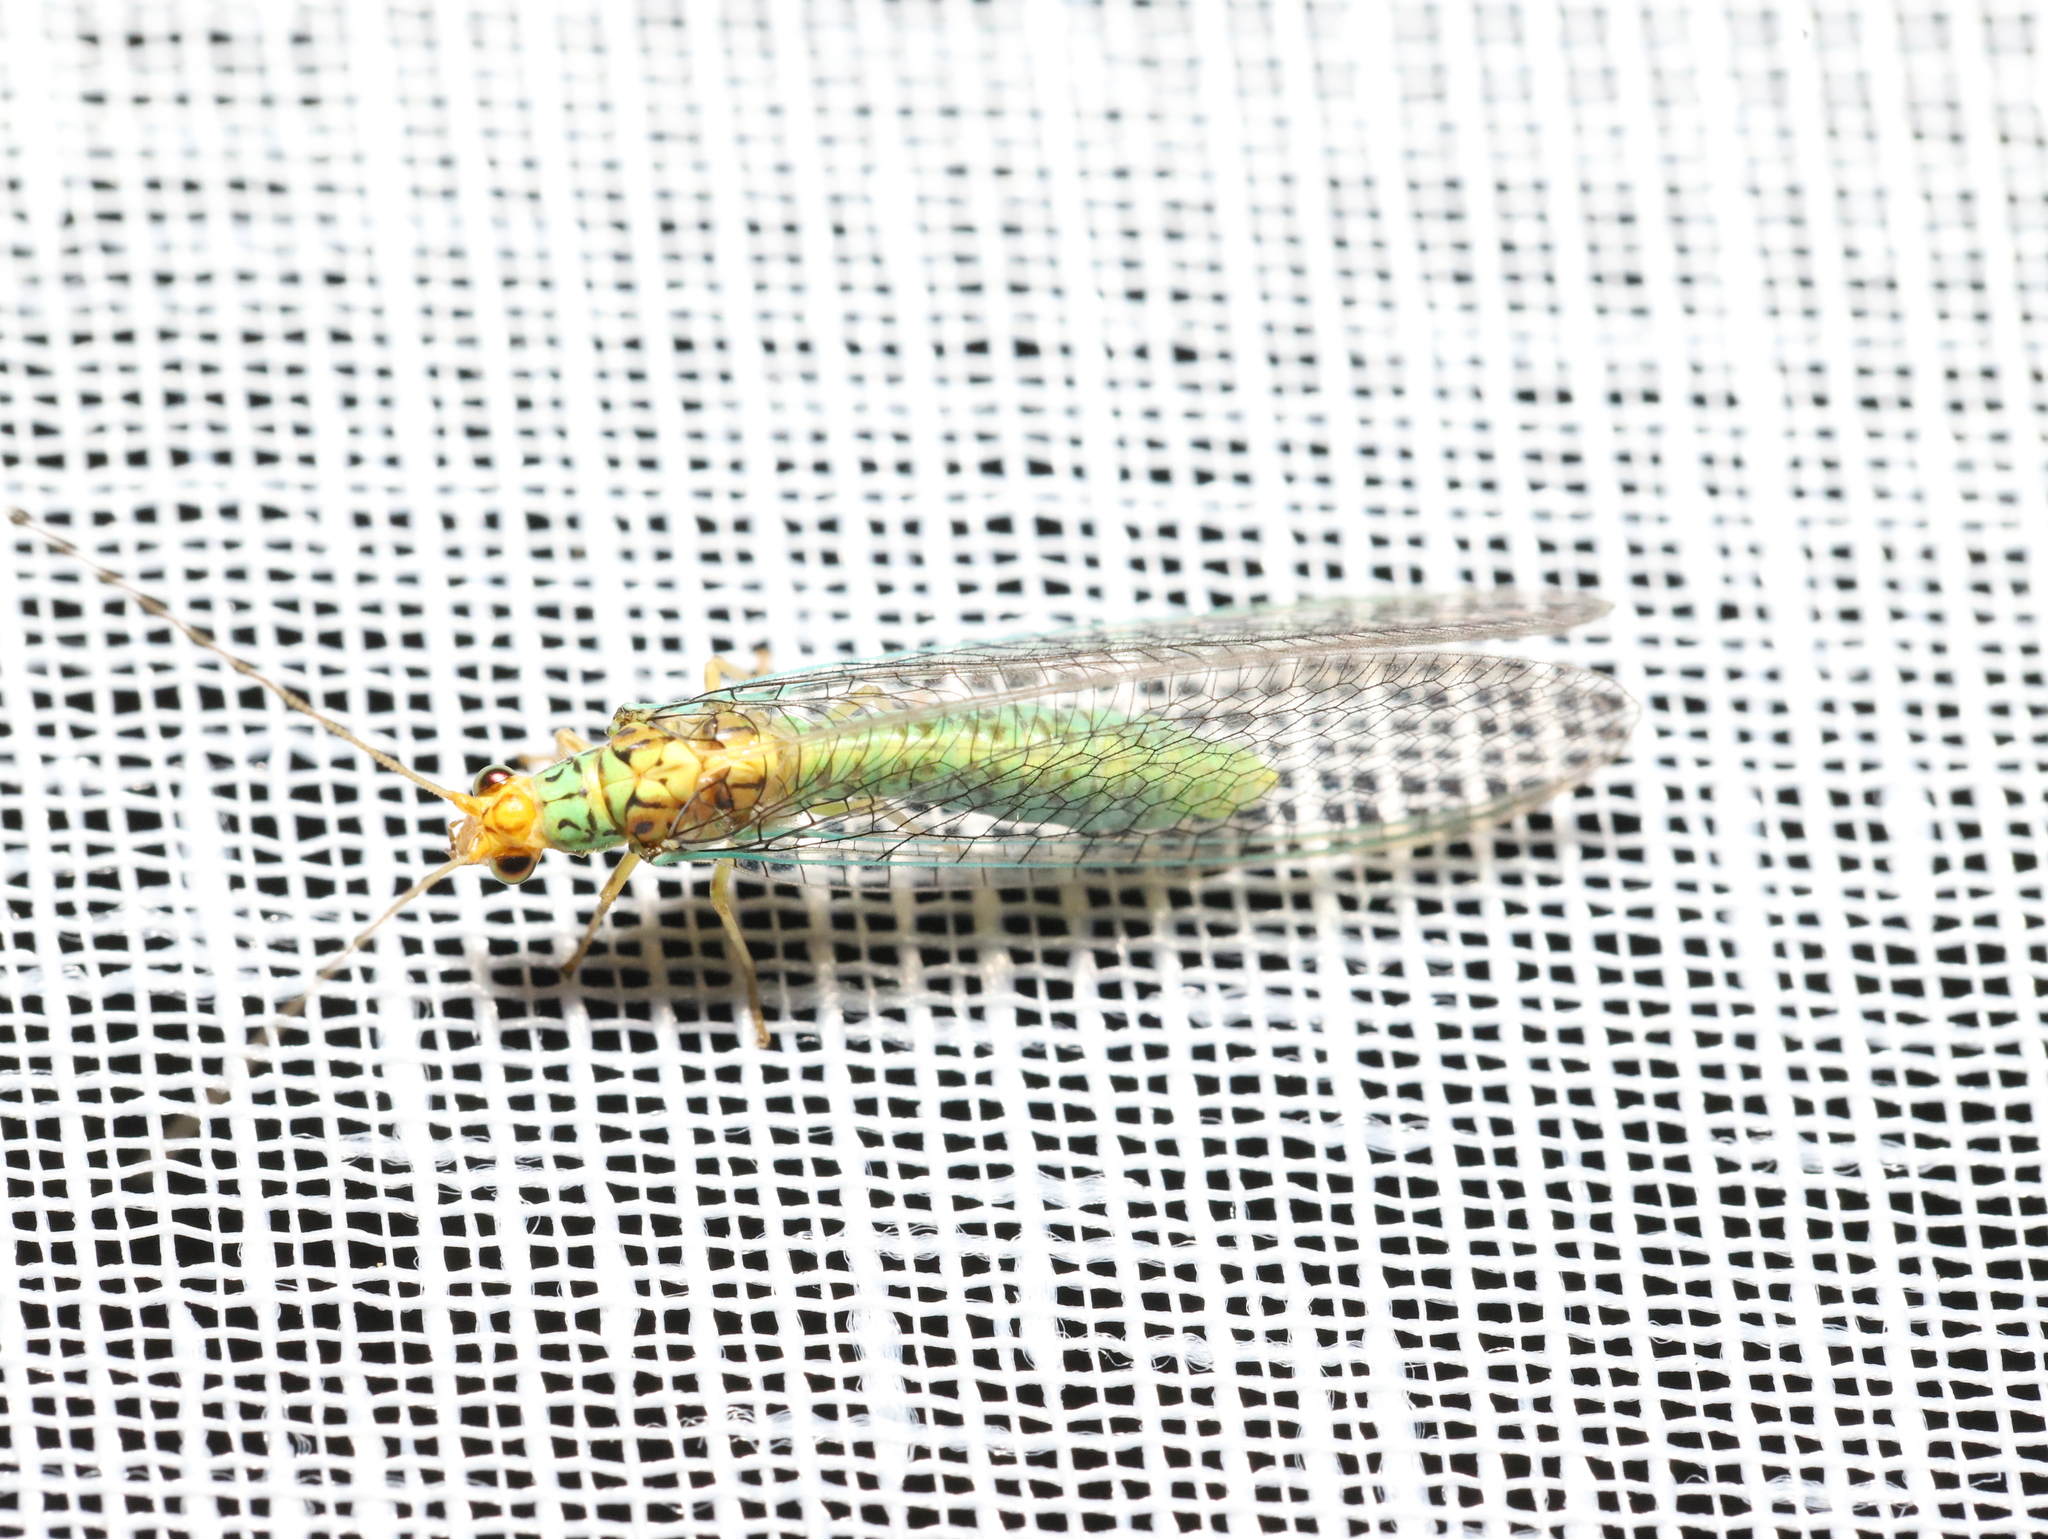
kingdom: Animalia
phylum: Arthropoda
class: Insecta
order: Neuroptera
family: Chrysopidae
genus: Dictyochrysa
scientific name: Dictyochrysa peterseni
